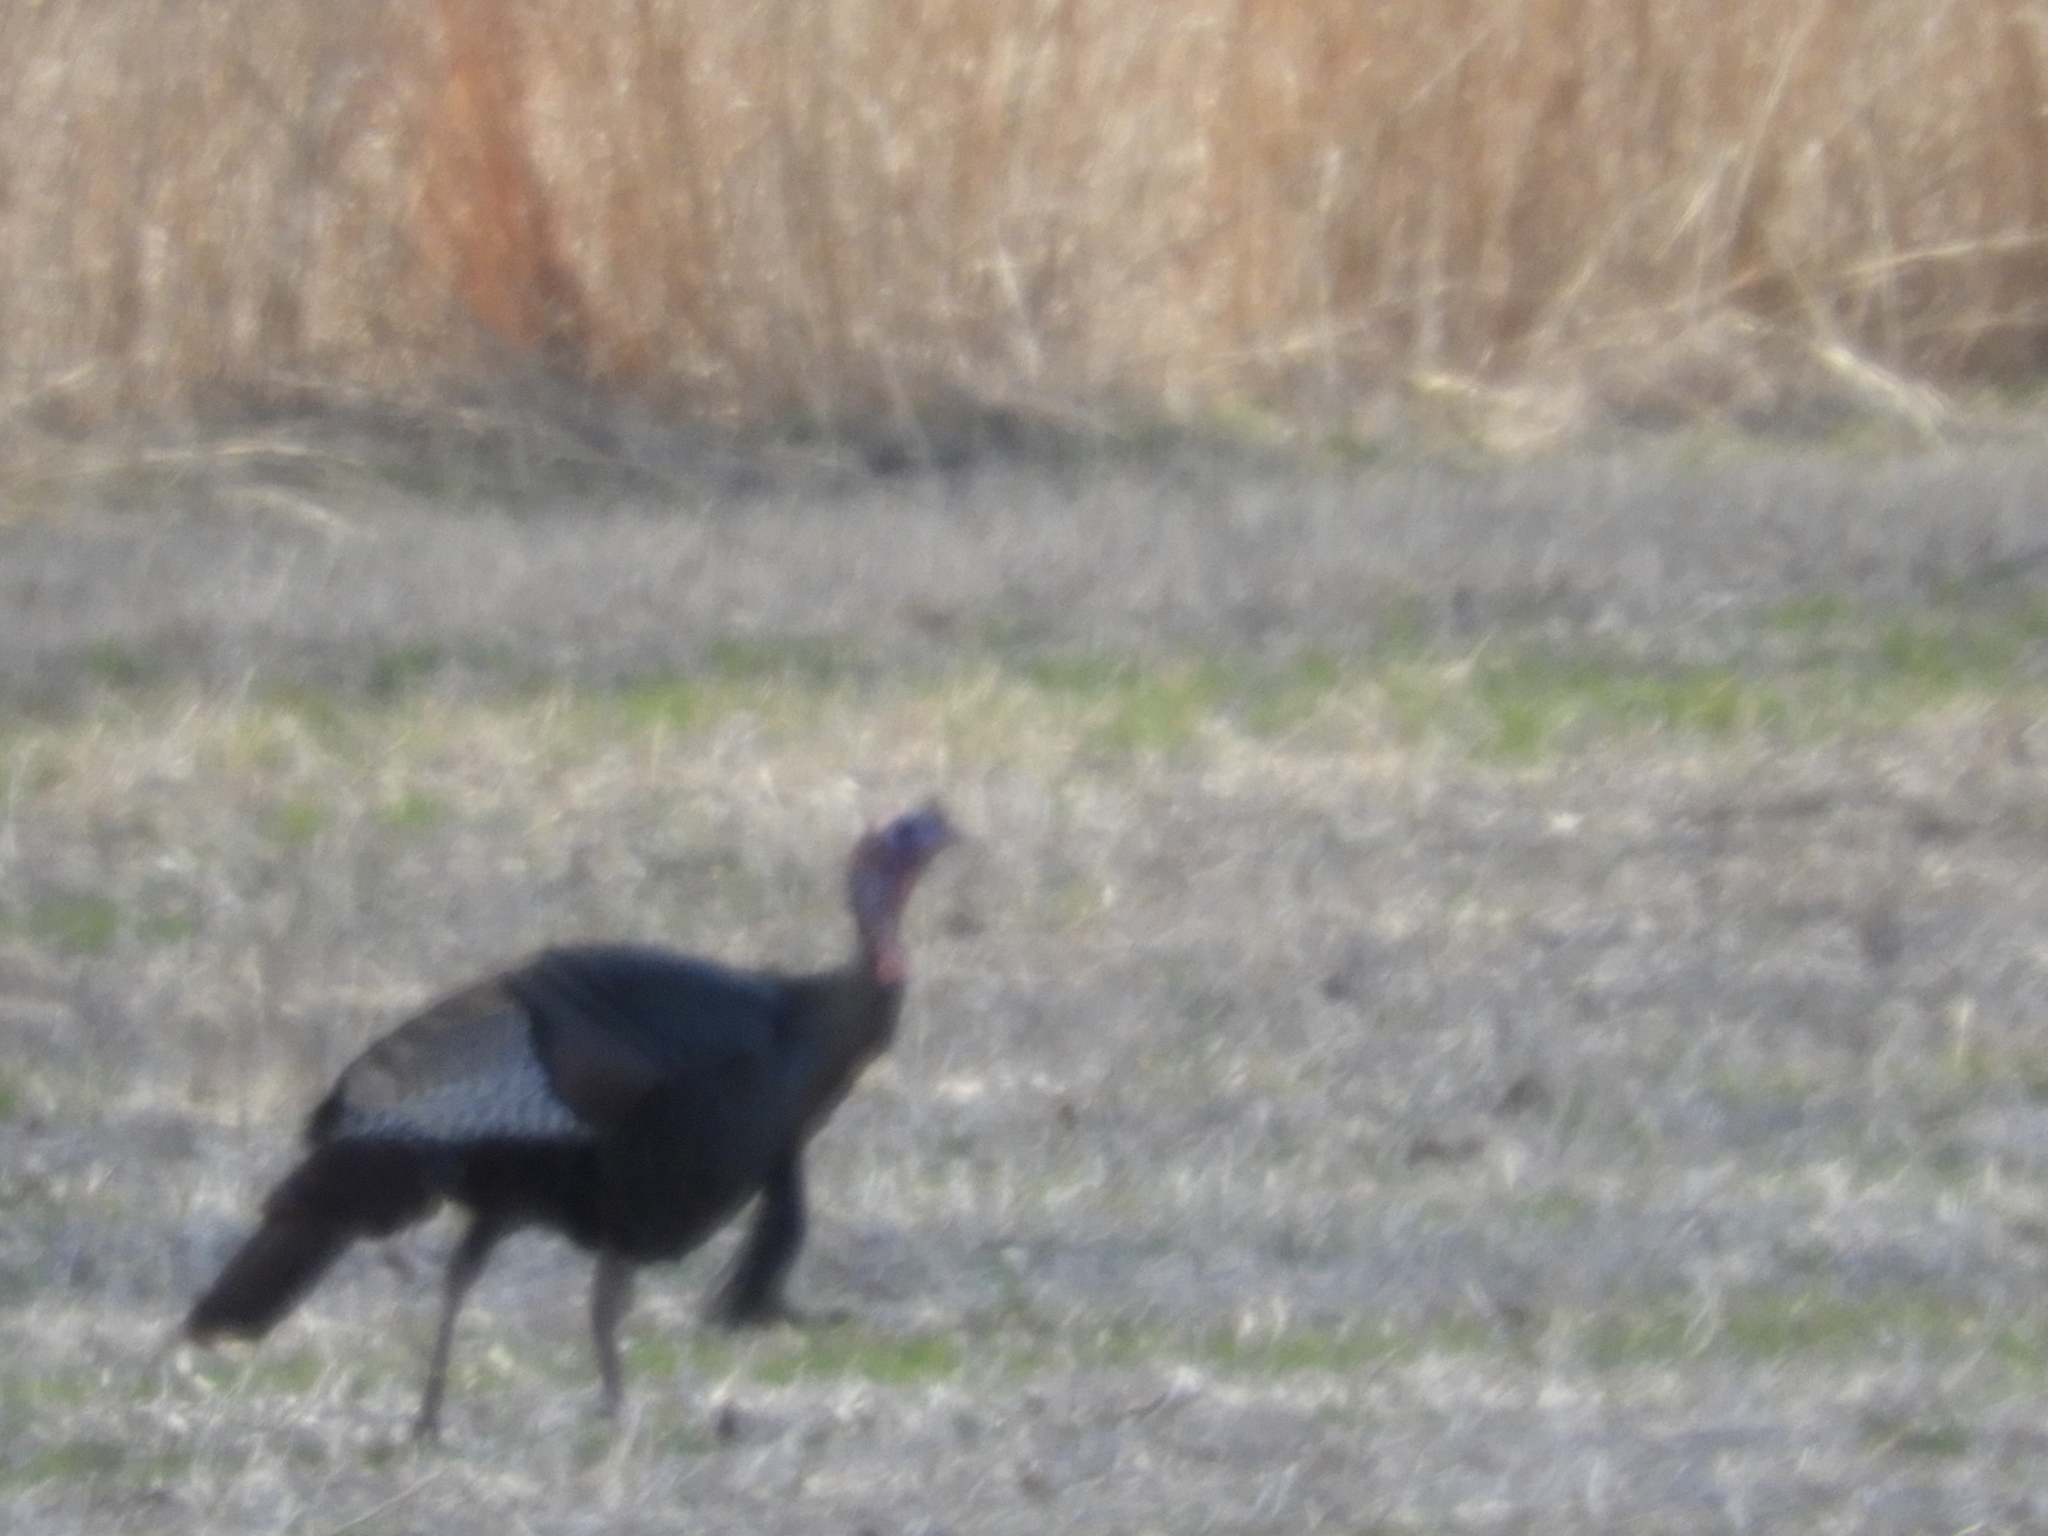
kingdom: Animalia
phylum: Chordata
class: Aves
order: Galliformes
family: Phasianidae
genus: Meleagris
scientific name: Meleagris gallopavo
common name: Wild turkey
